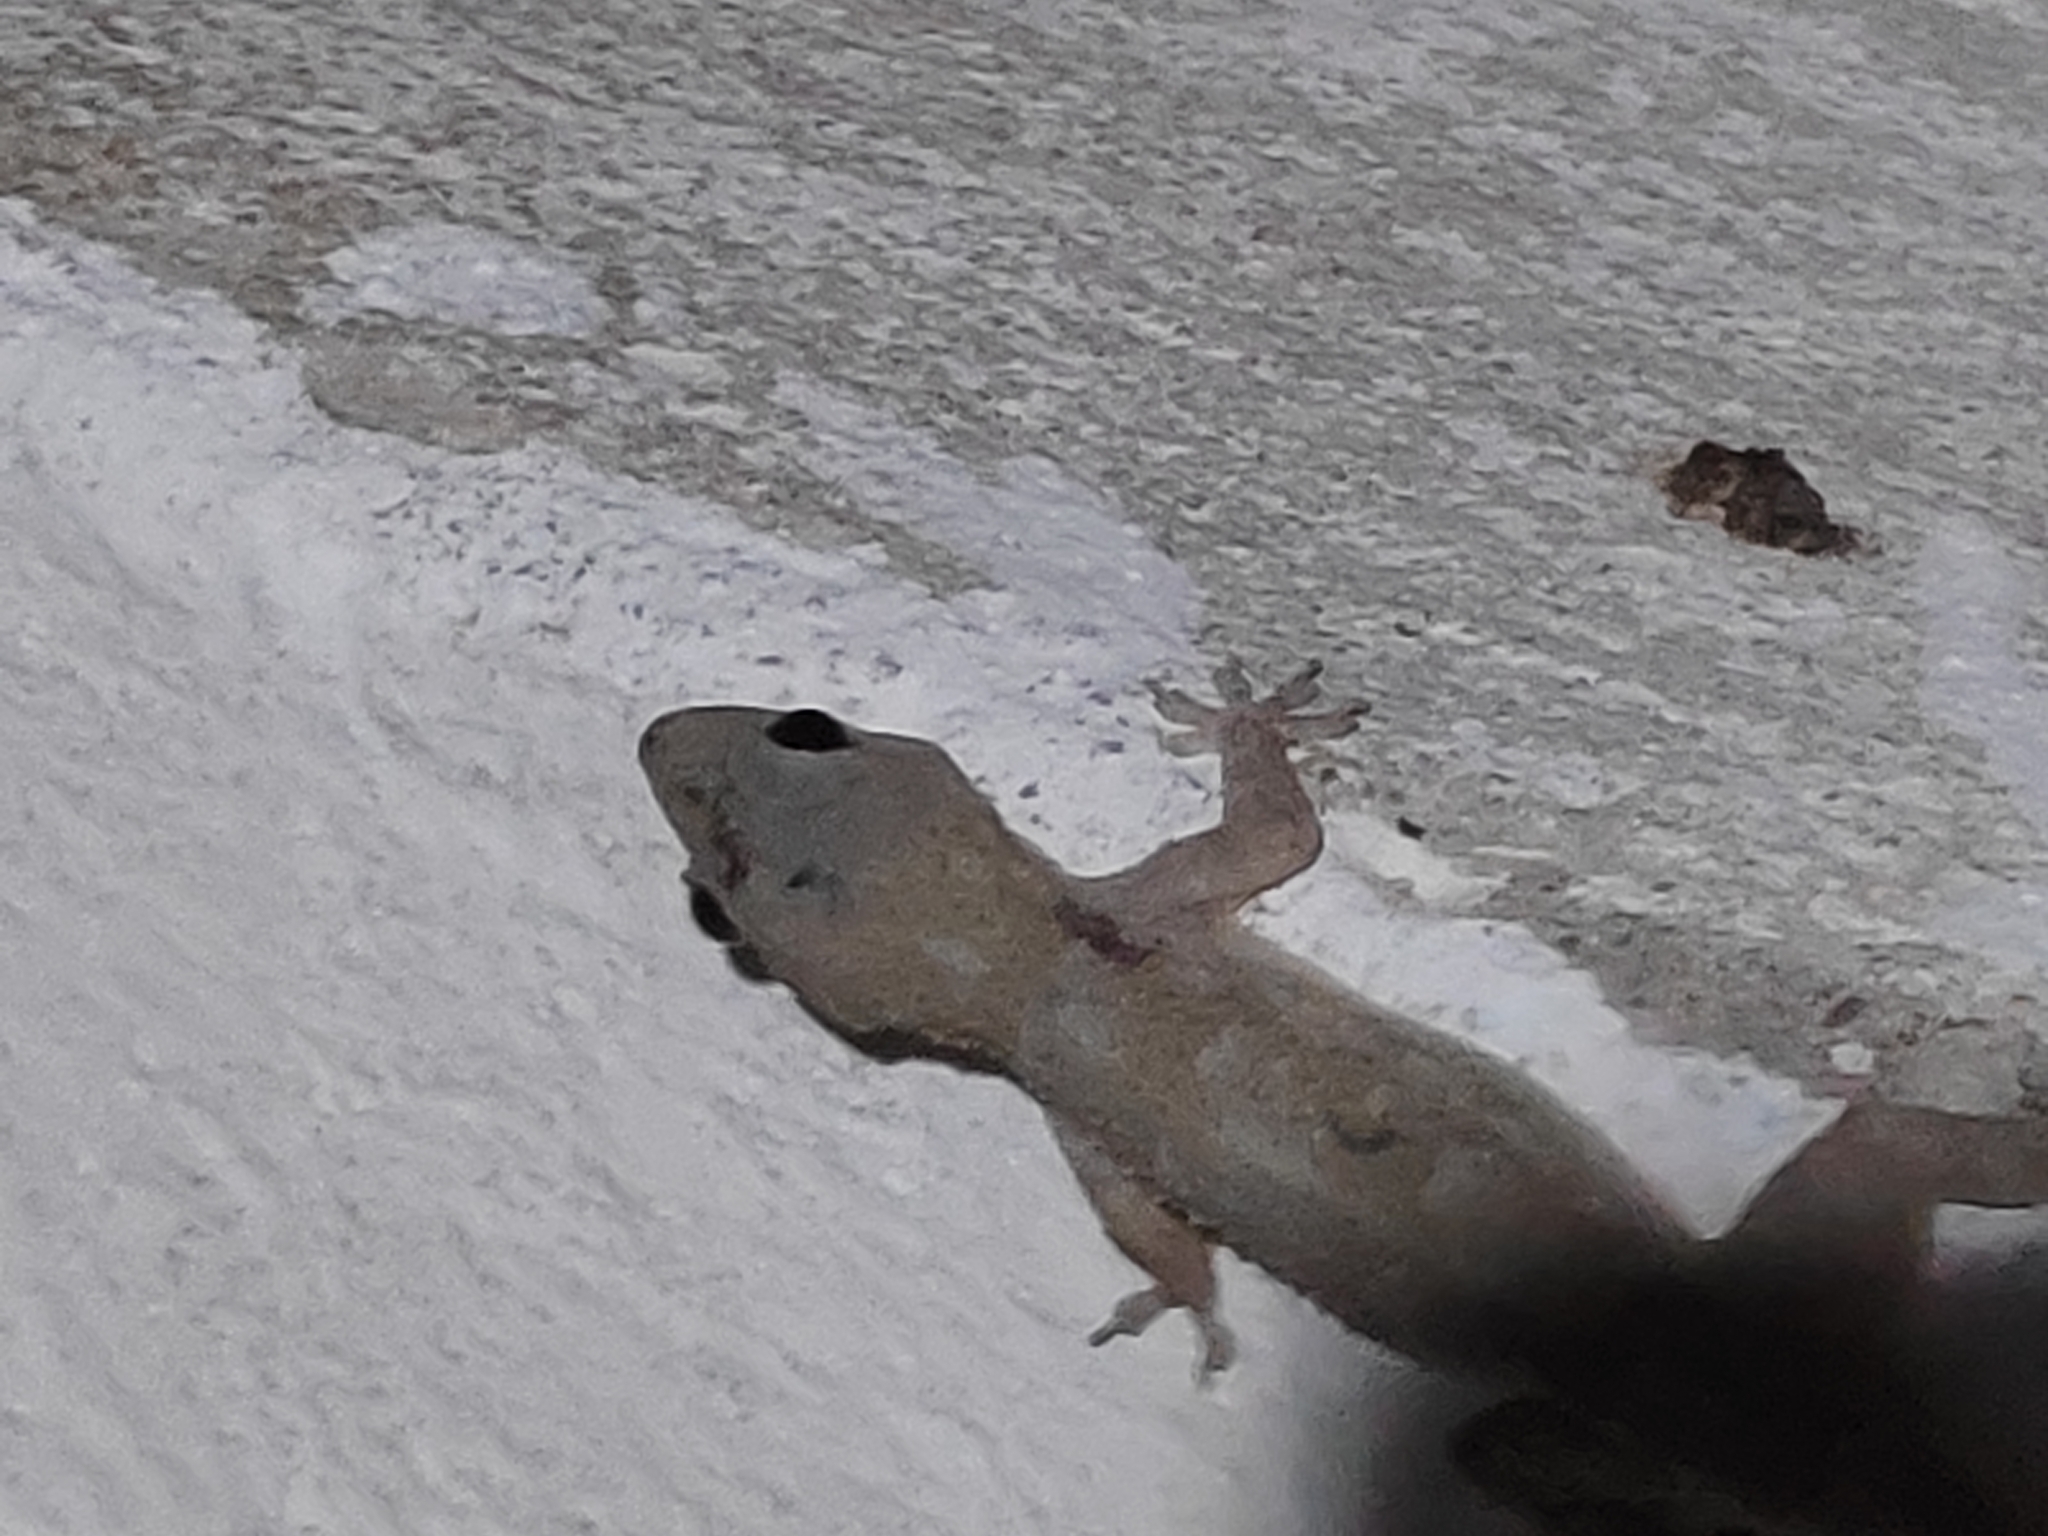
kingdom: Animalia
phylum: Chordata
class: Squamata
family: Gekkonidae
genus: Hemidactylus
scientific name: Hemidactylus mabouia
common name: House gecko
